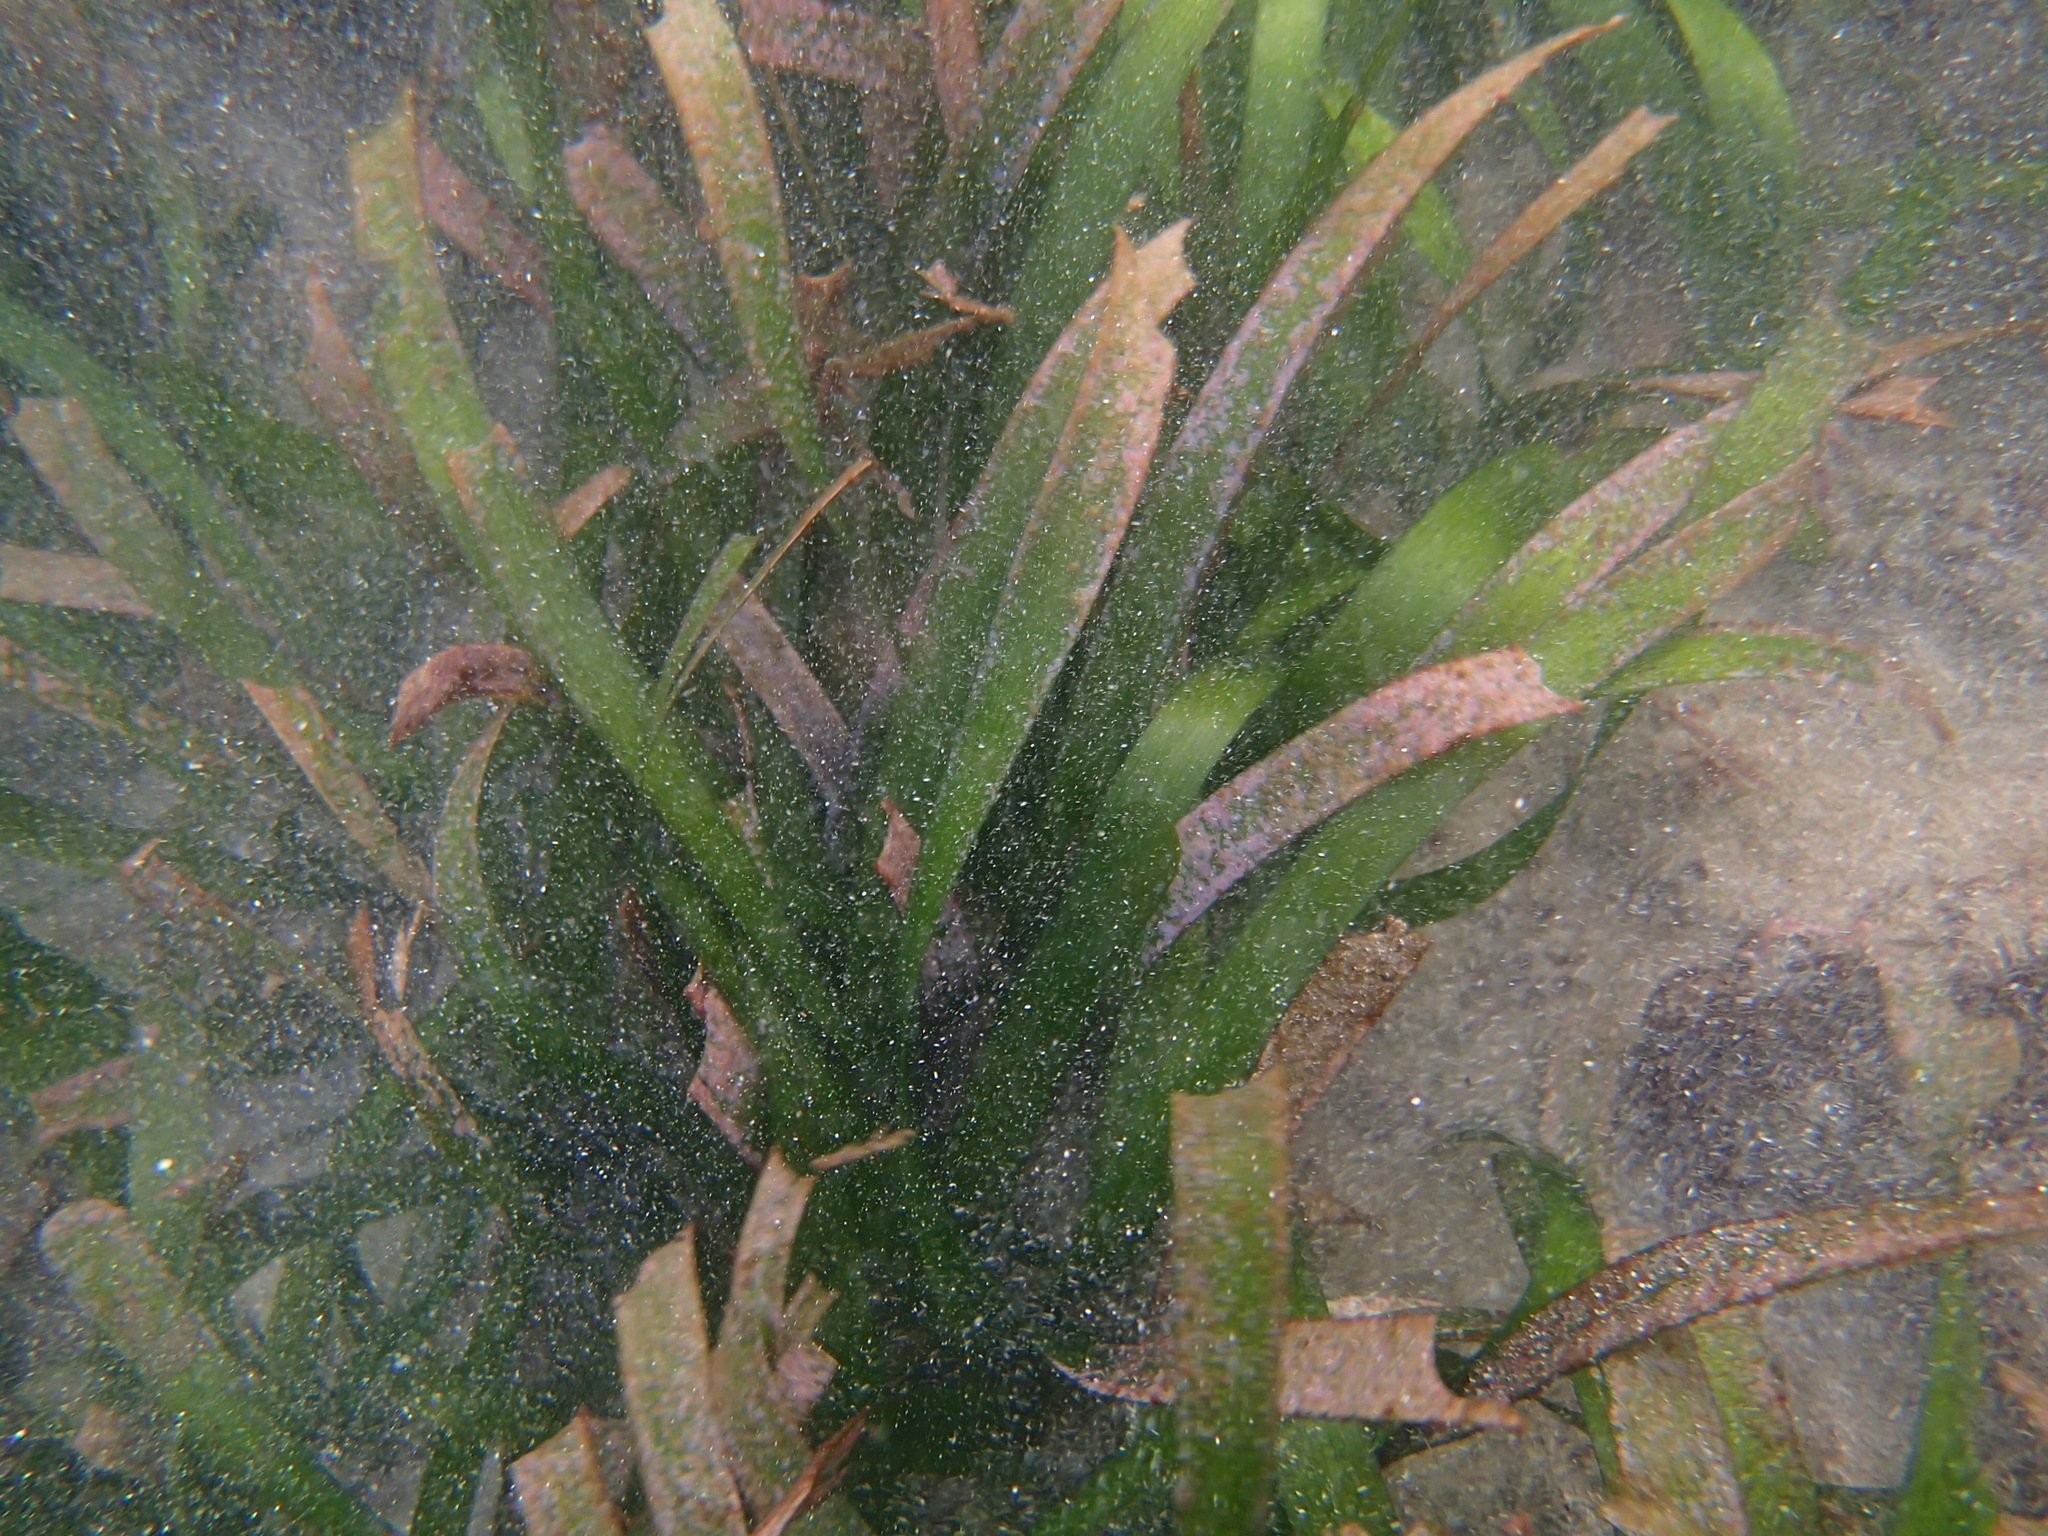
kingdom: Plantae
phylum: Tracheophyta
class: Liliopsida
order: Alismatales
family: Hydrocharitaceae
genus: Thalassia
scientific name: Thalassia testudinum
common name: Species code: tt
